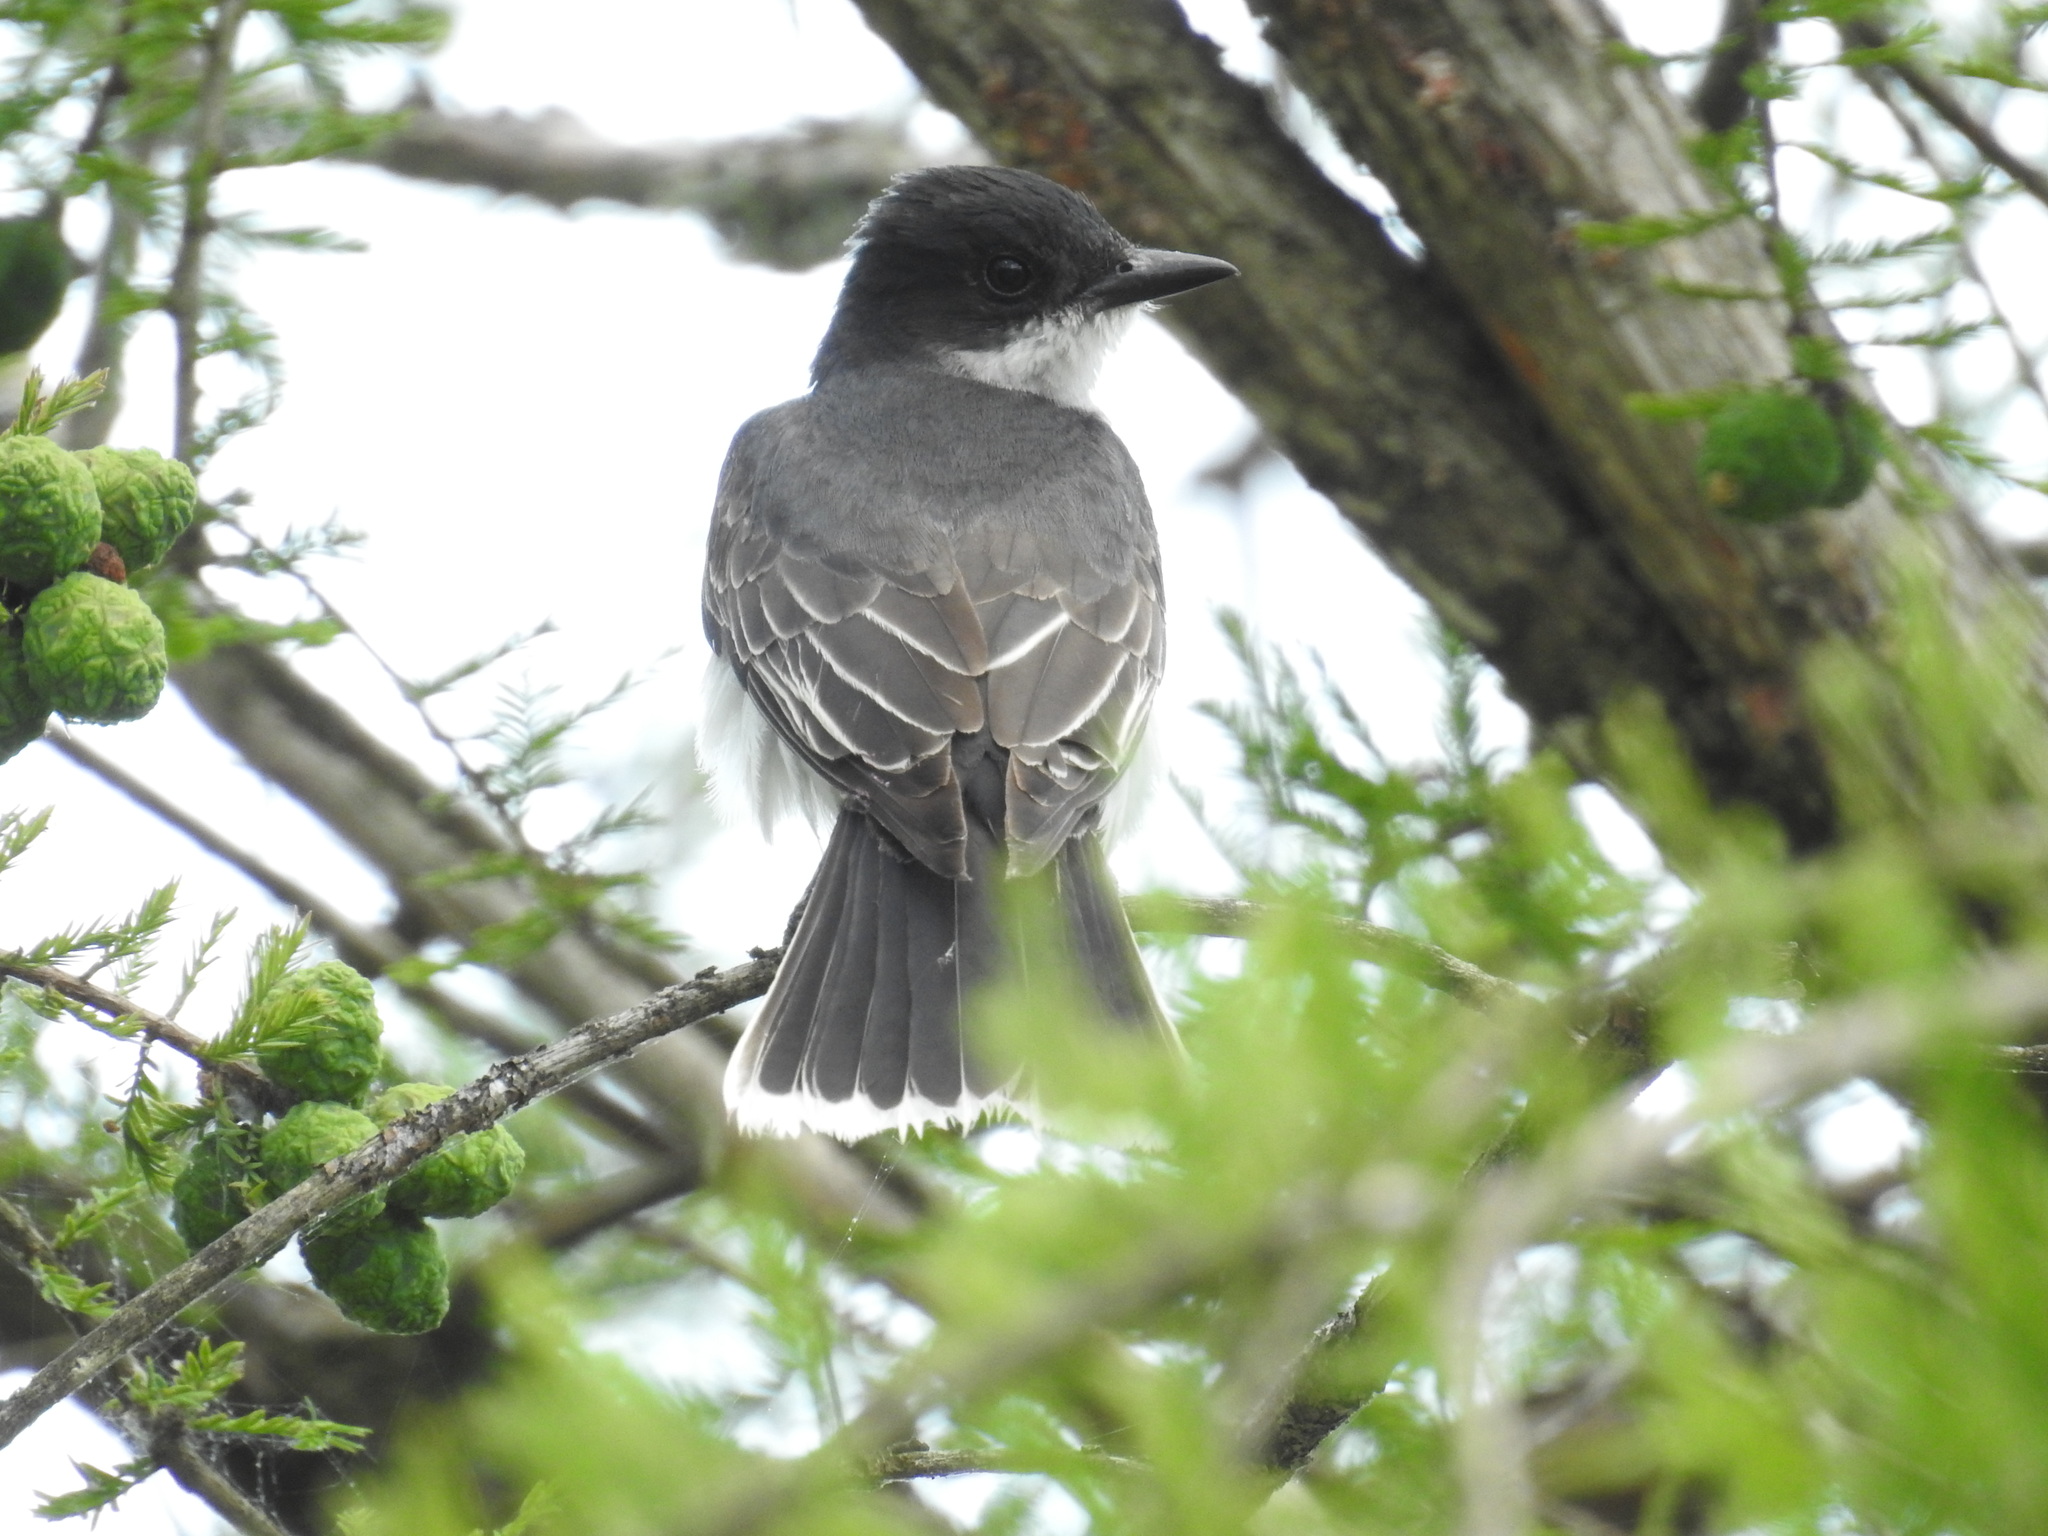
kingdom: Animalia
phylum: Chordata
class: Aves
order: Passeriformes
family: Tyrannidae
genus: Tyrannus
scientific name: Tyrannus tyrannus
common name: Eastern kingbird
